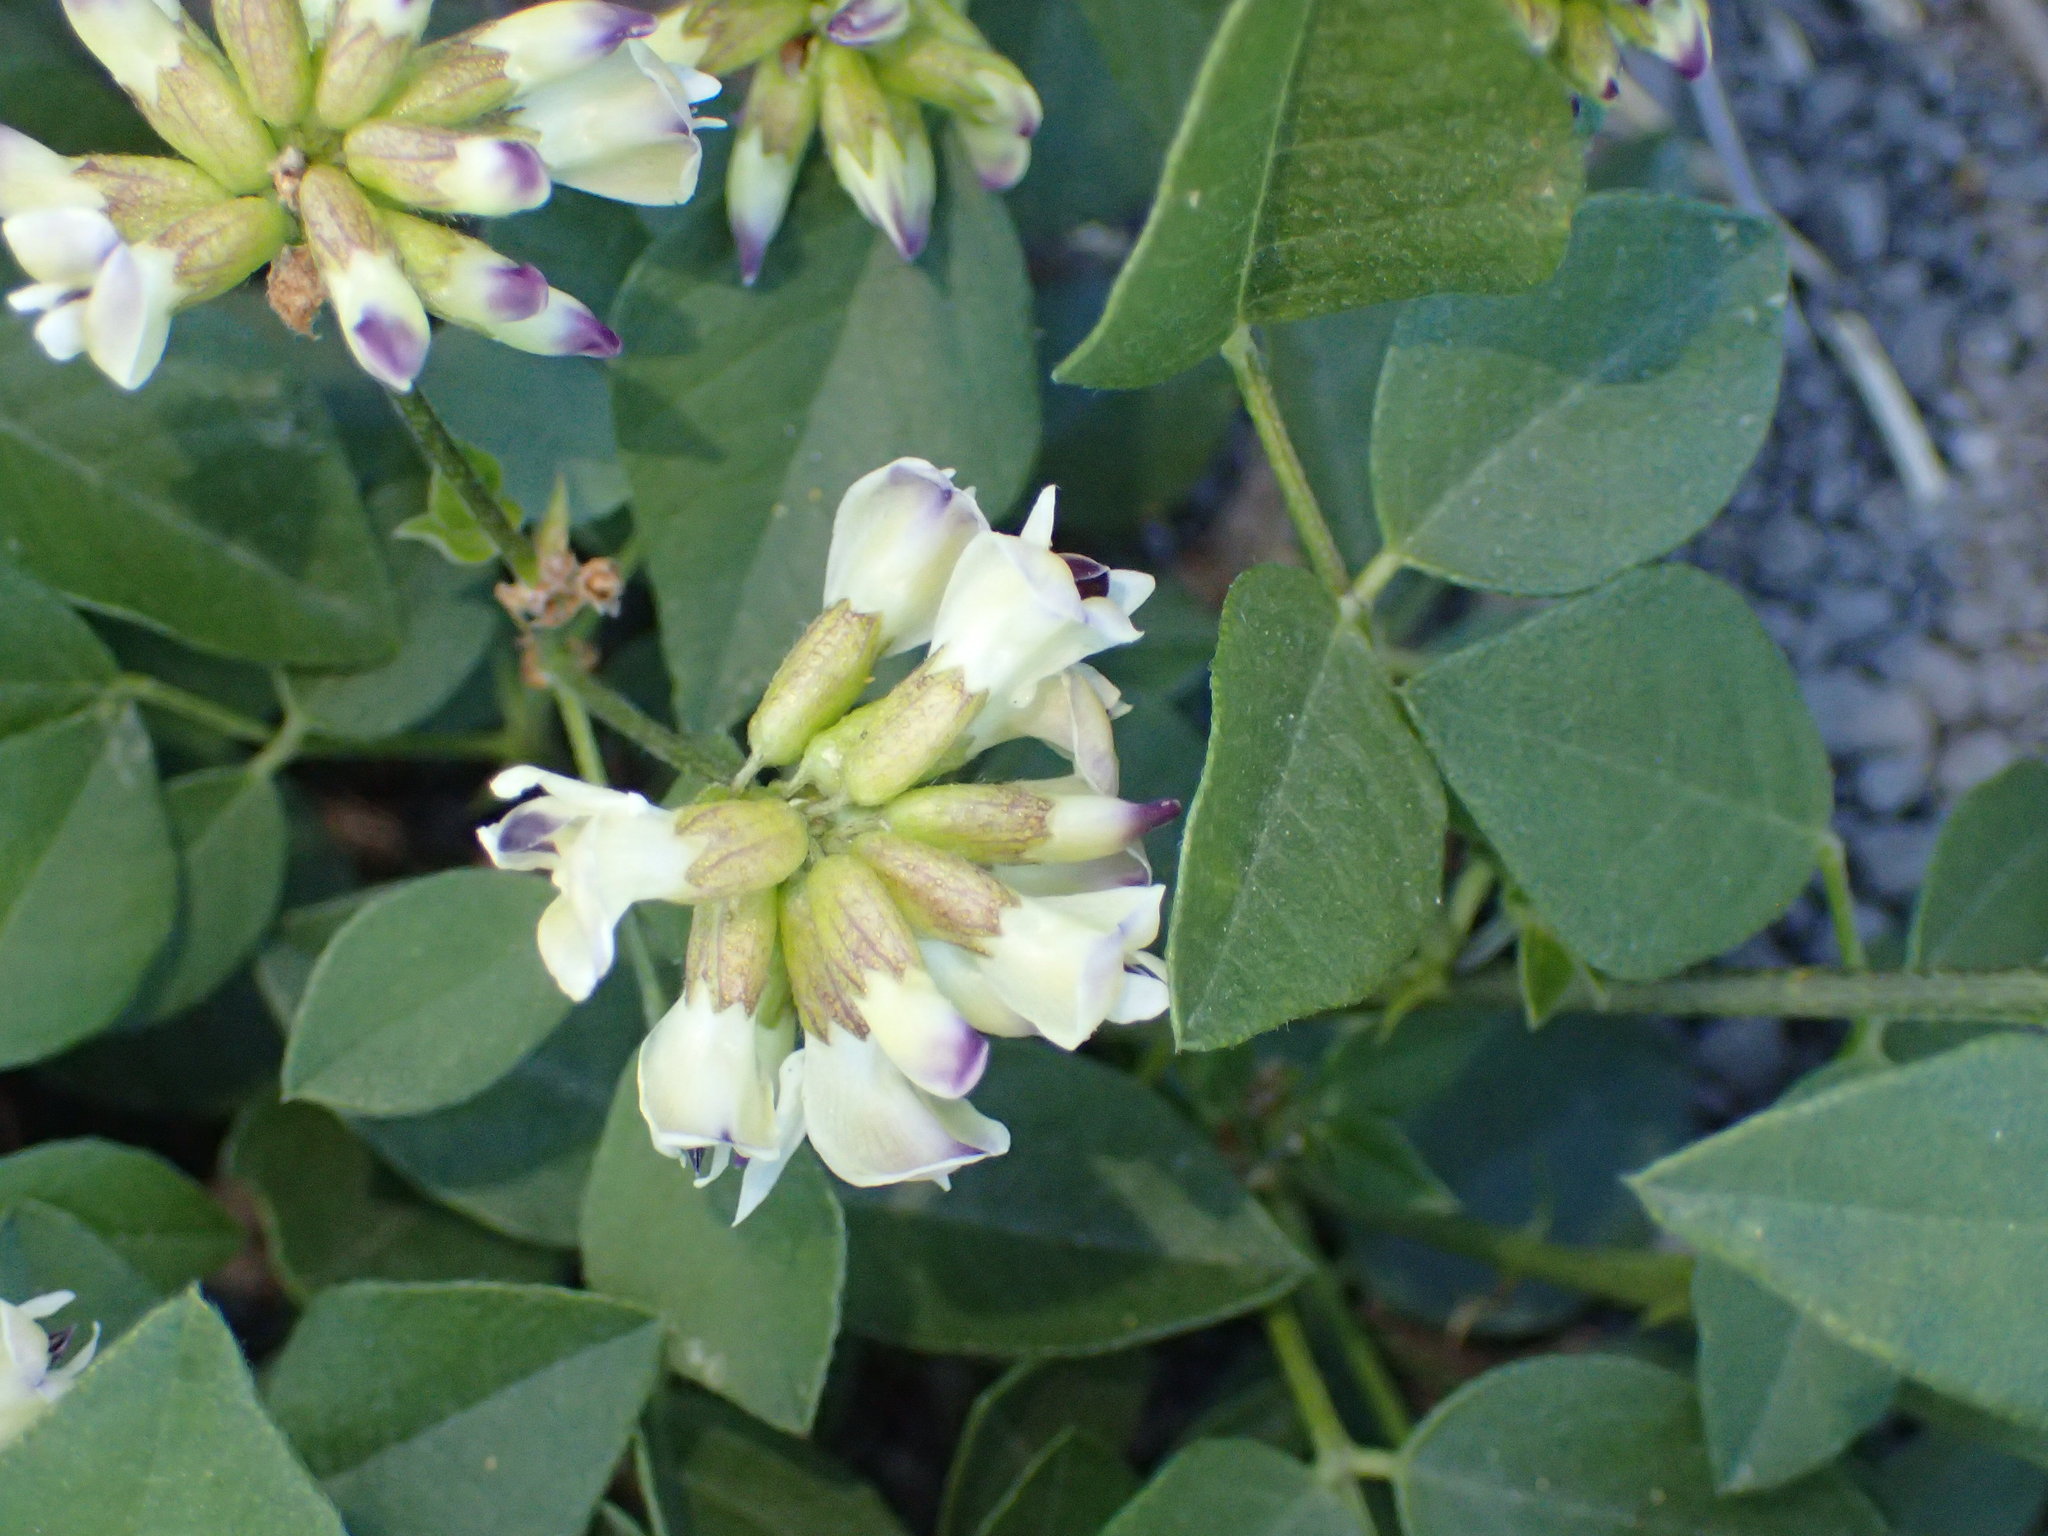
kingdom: Plantae
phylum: Tracheophyta
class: Magnoliopsida
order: Fabales
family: Fabaceae
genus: Rupertia
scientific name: Rupertia physodes
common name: California-tea
